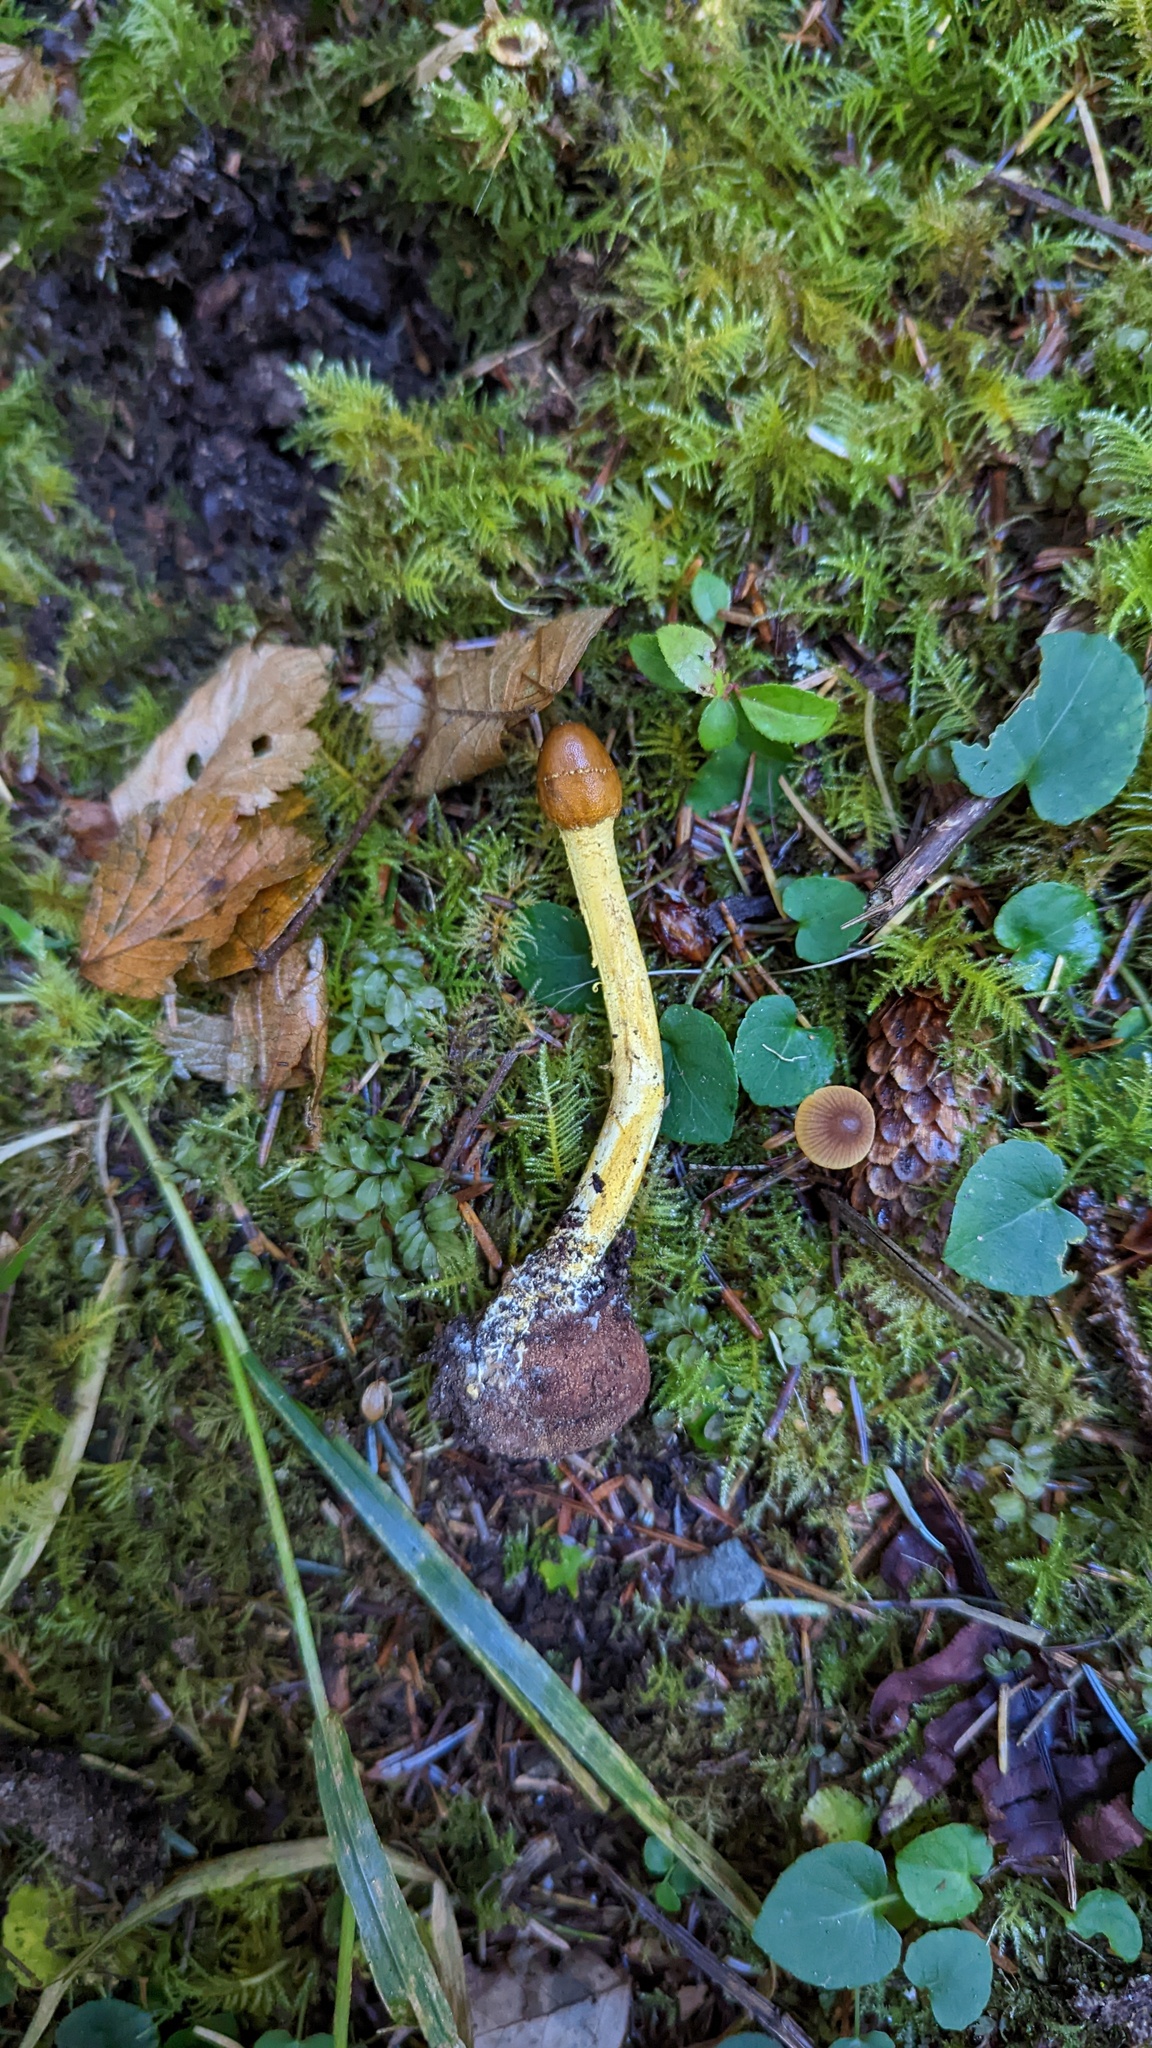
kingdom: Fungi
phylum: Ascomycota
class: Sordariomycetes
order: Hypocreales
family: Ophiocordycipitaceae
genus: Tolypocladium
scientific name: Tolypocladium capitatum
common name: Capitate truffleclub
